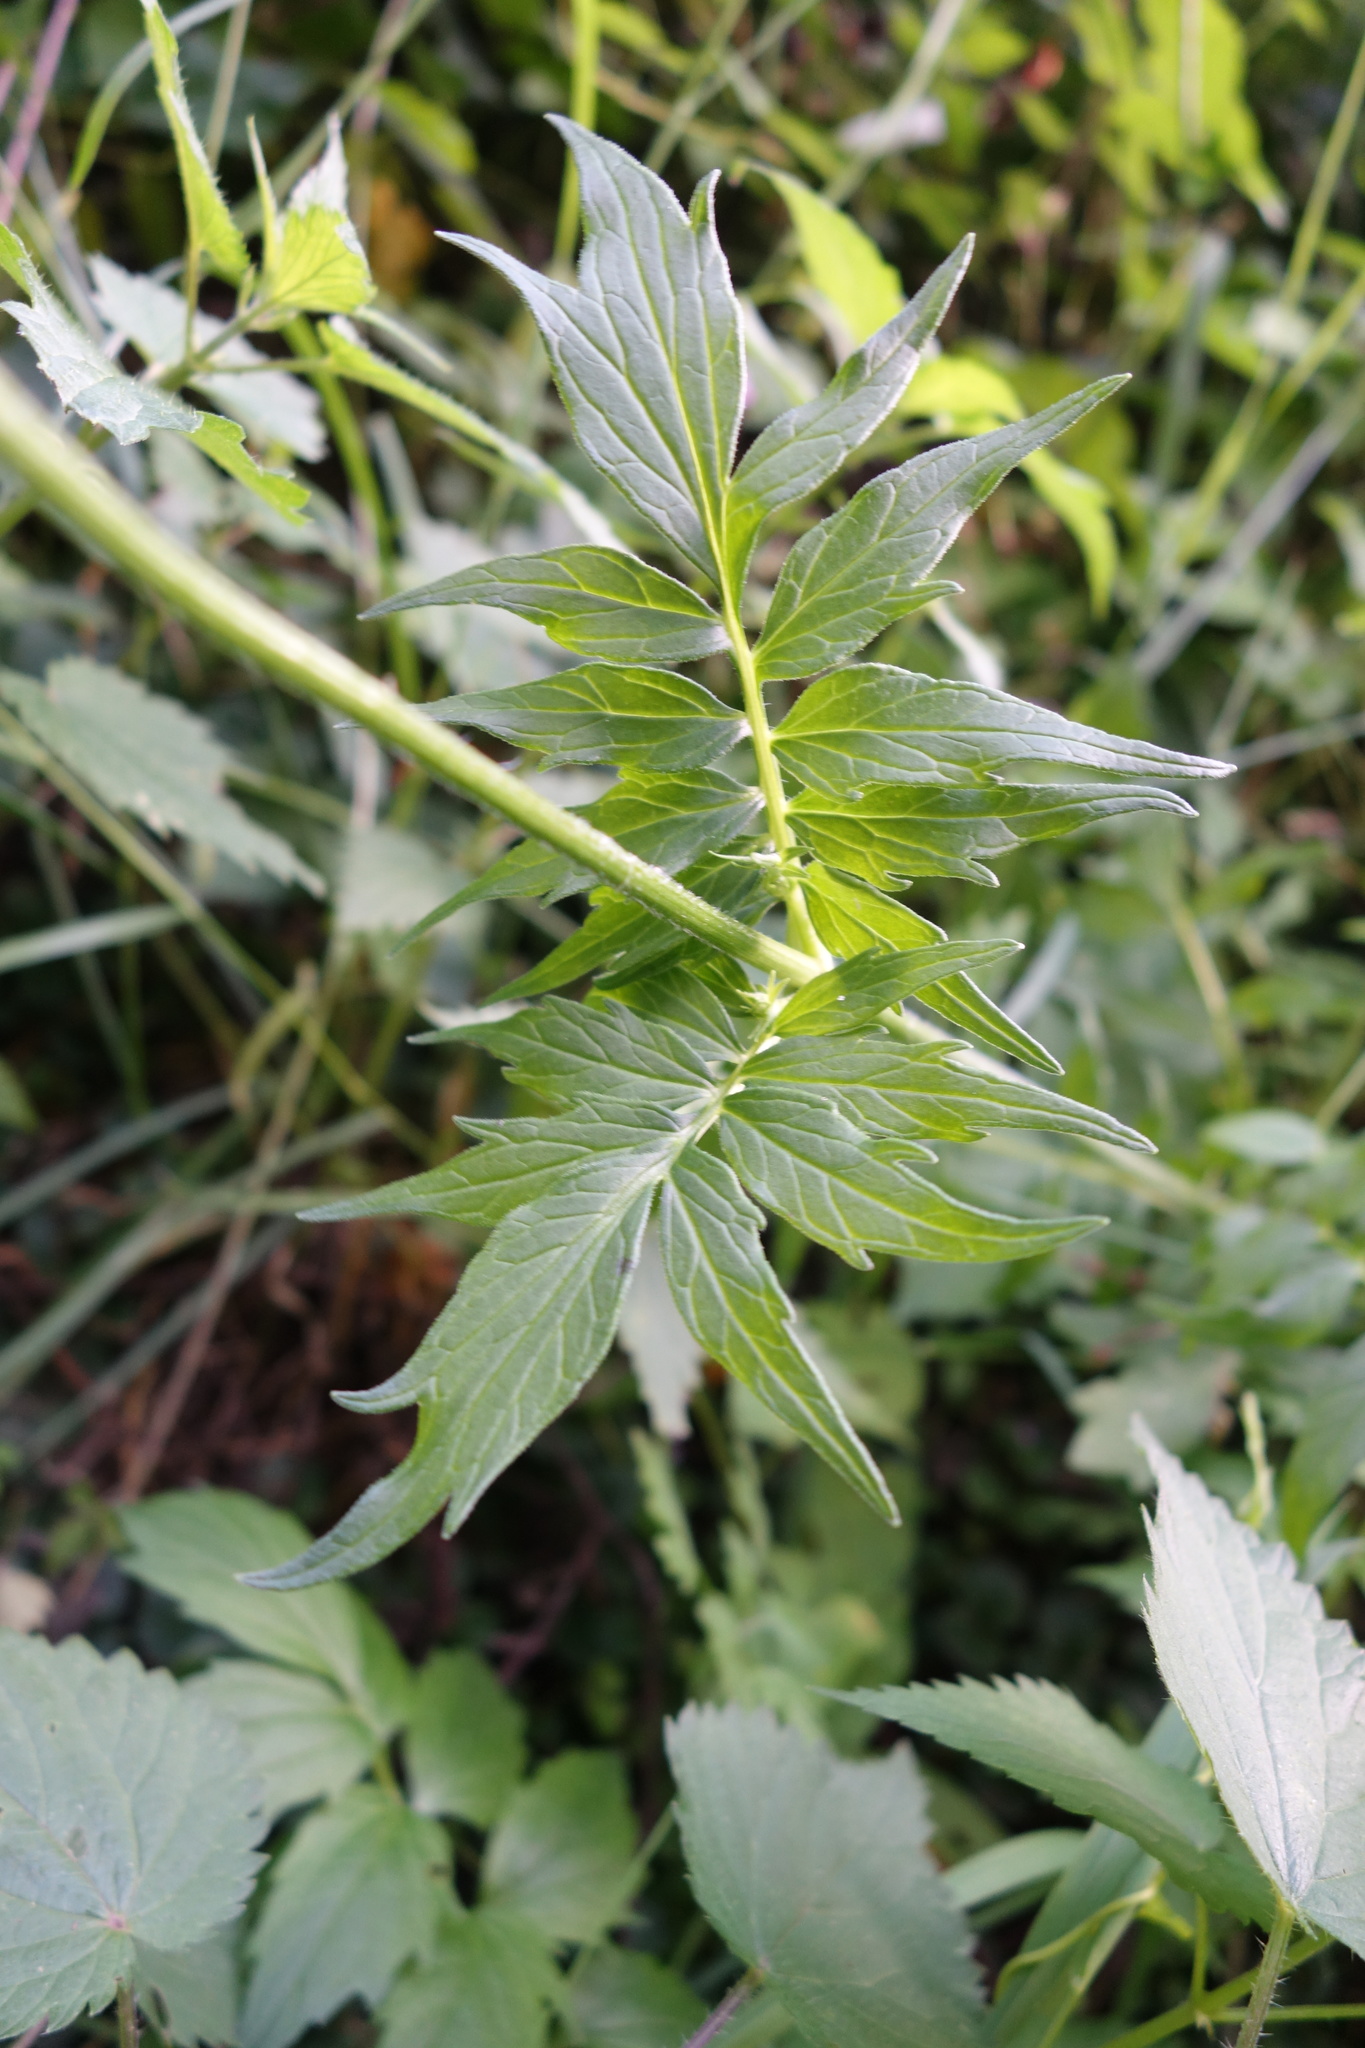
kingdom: Plantae
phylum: Tracheophyta
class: Magnoliopsida
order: Dipsacales
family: Caprifoliaceae
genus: Valeriana
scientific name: Valeriana officinalis
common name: Common valerian
